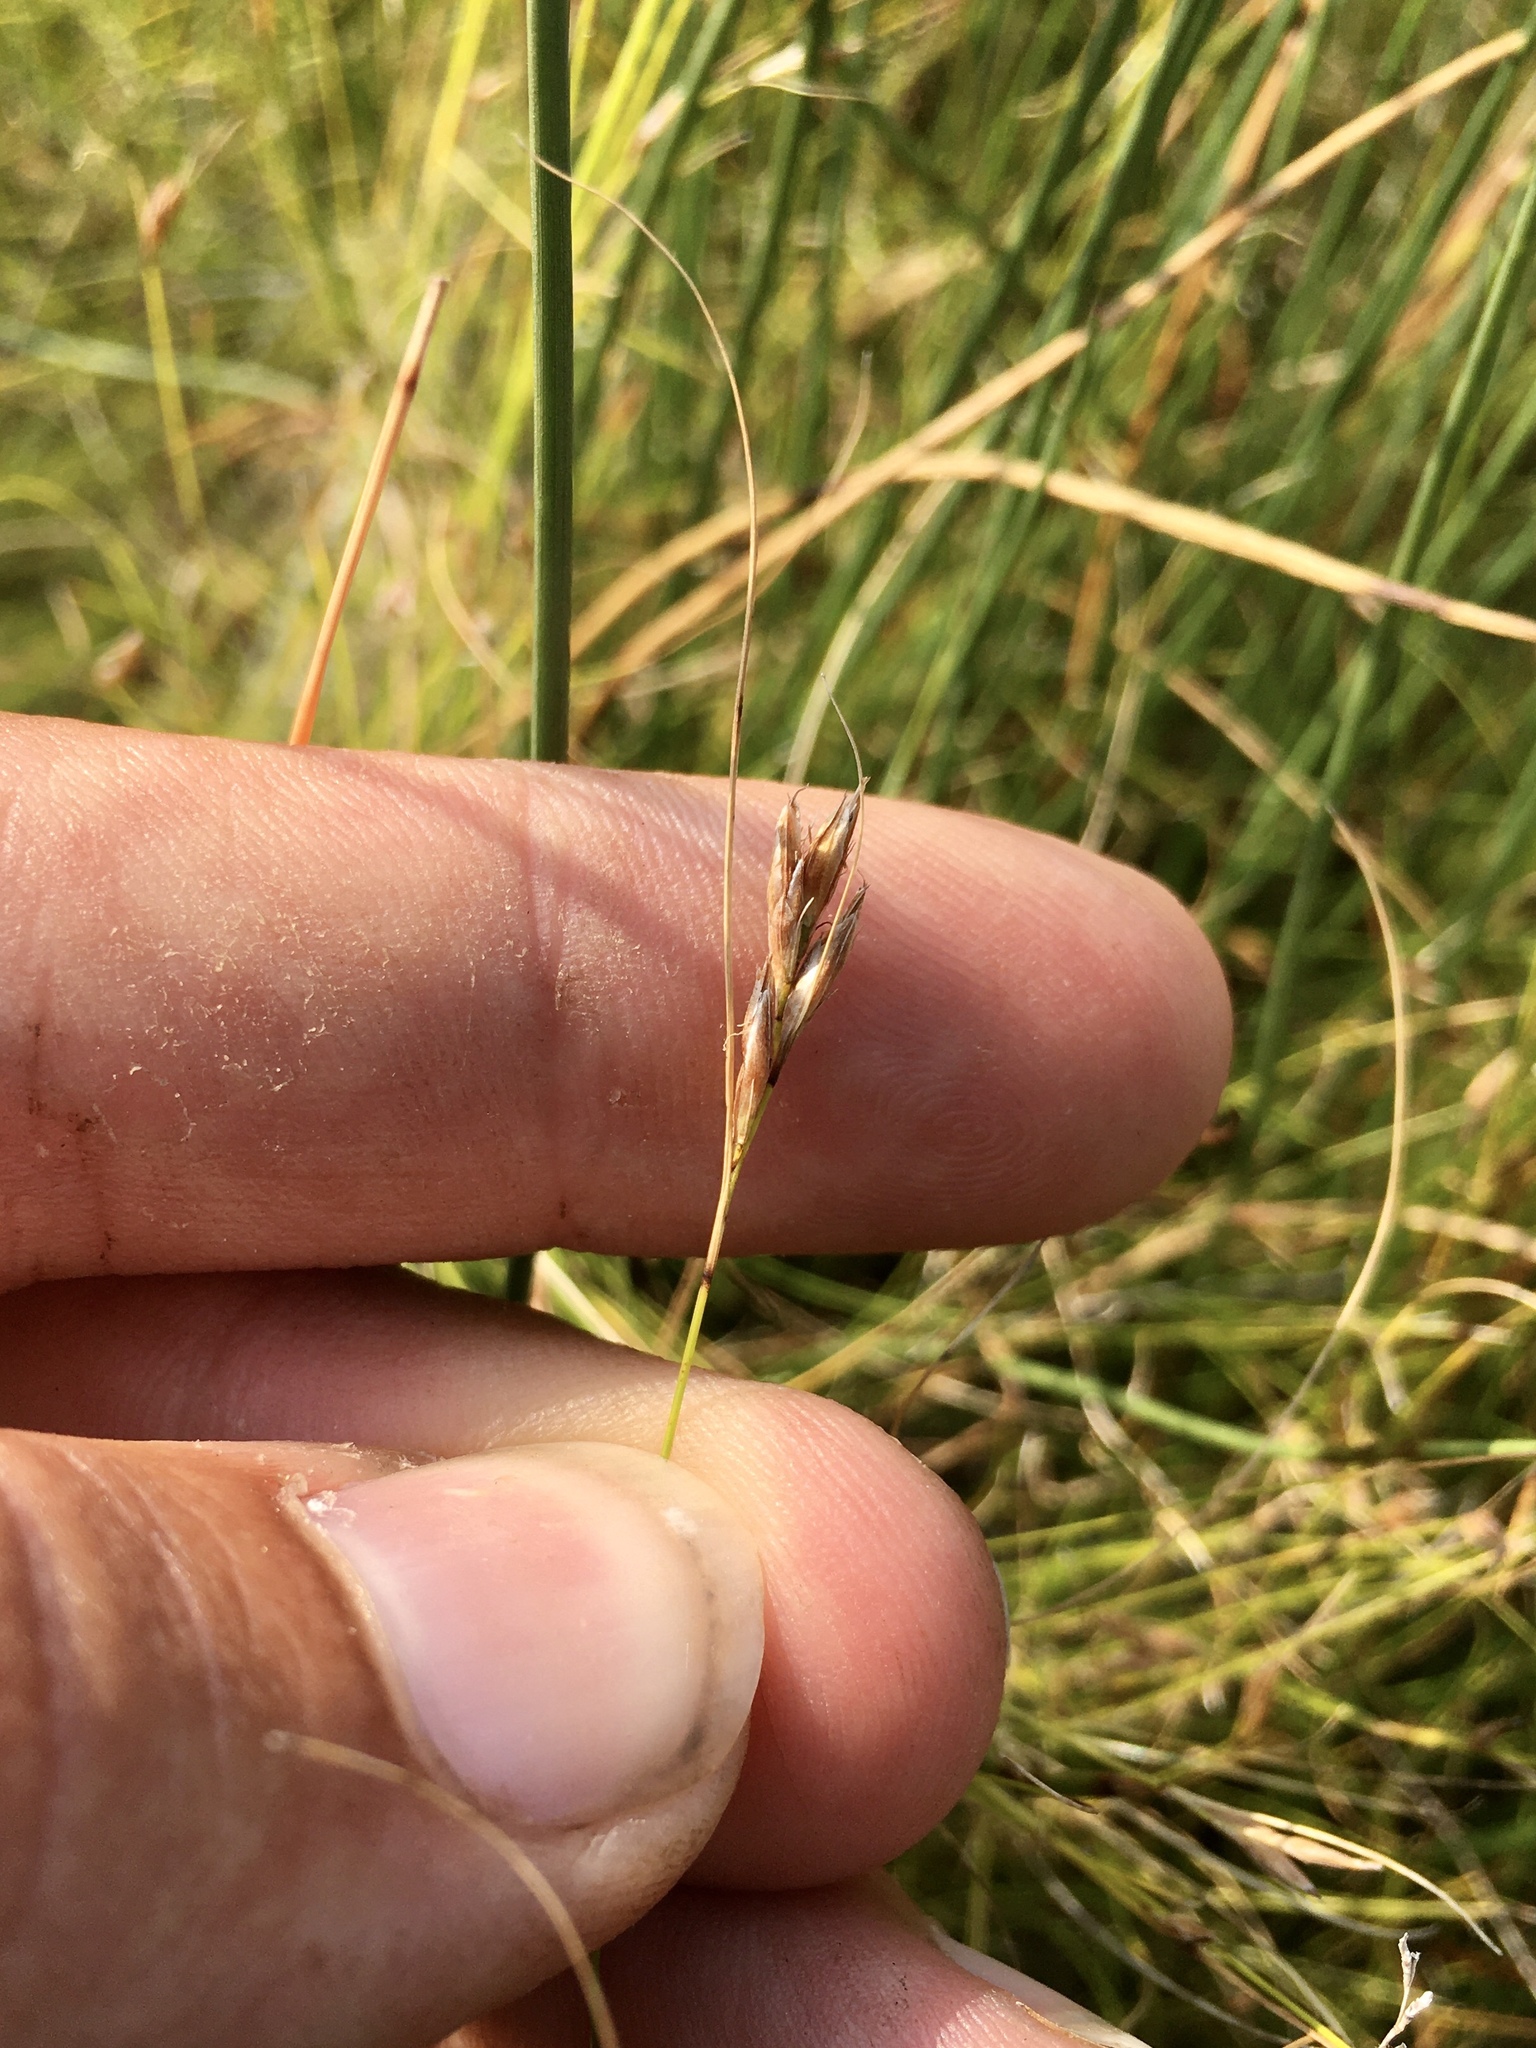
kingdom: Plantae
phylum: Tracheophyta
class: Liliopsida
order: Poales
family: Cyperaceae
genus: Rhynchospora
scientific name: Rhynchospora capillacea
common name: Capillary beakrush
